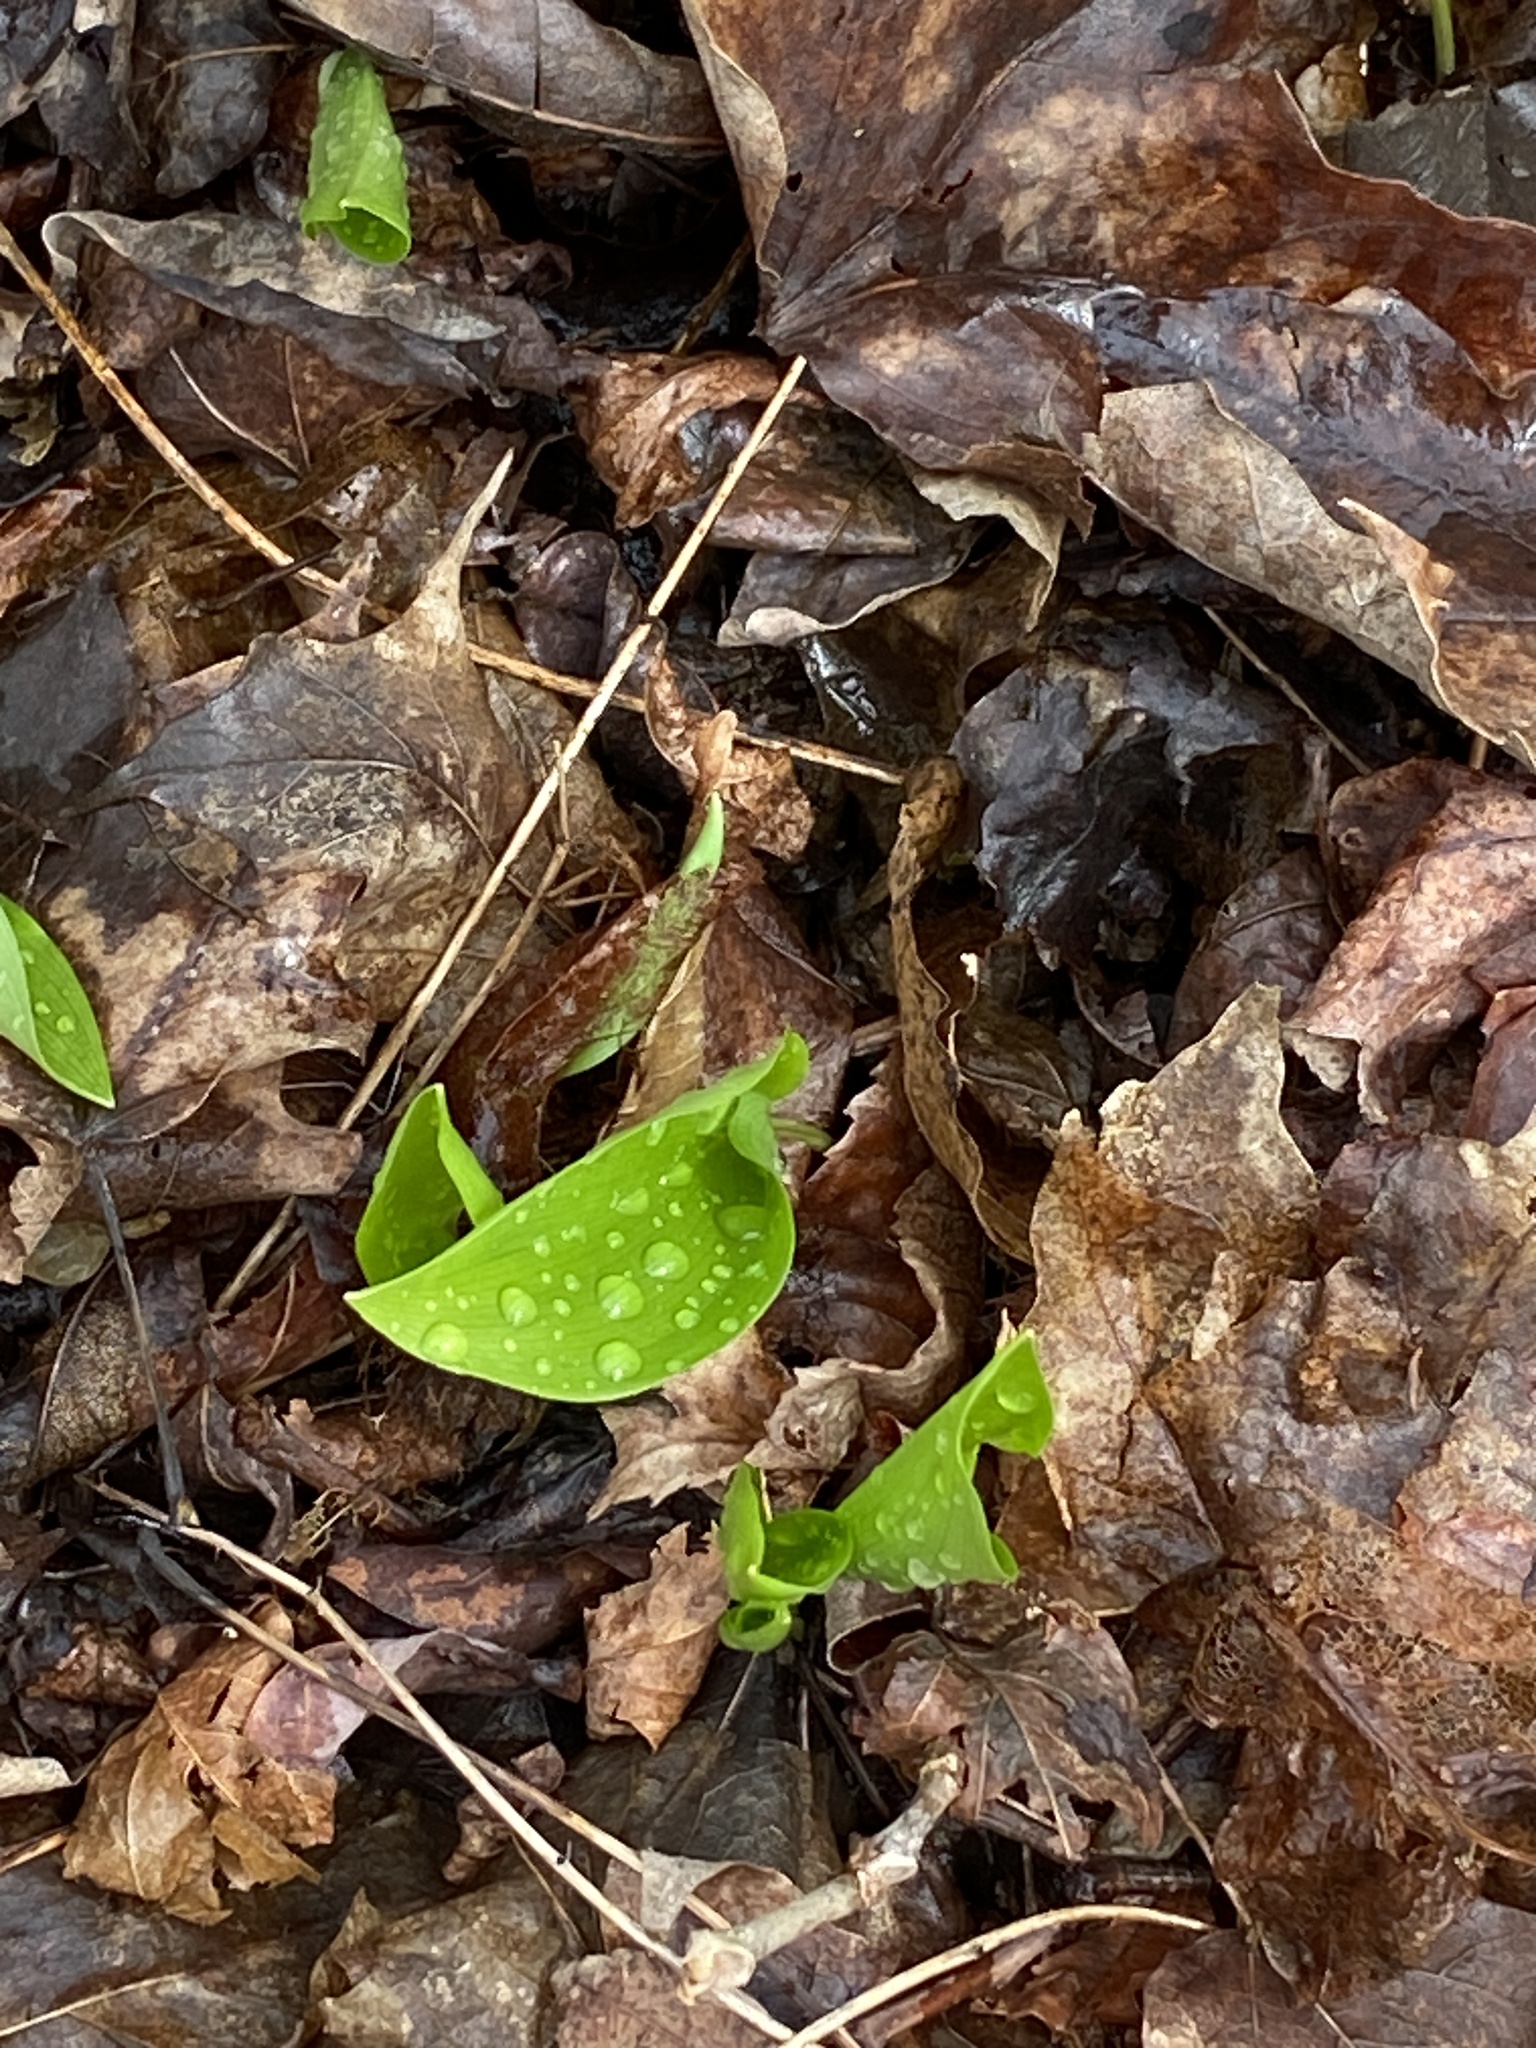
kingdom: Plantae
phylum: Tracheophyta
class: Liliopsida
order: Asparagales
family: Asparagaceae
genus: Maianthemum
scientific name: Maianthemum canadense
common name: False lily-of-the-valley
